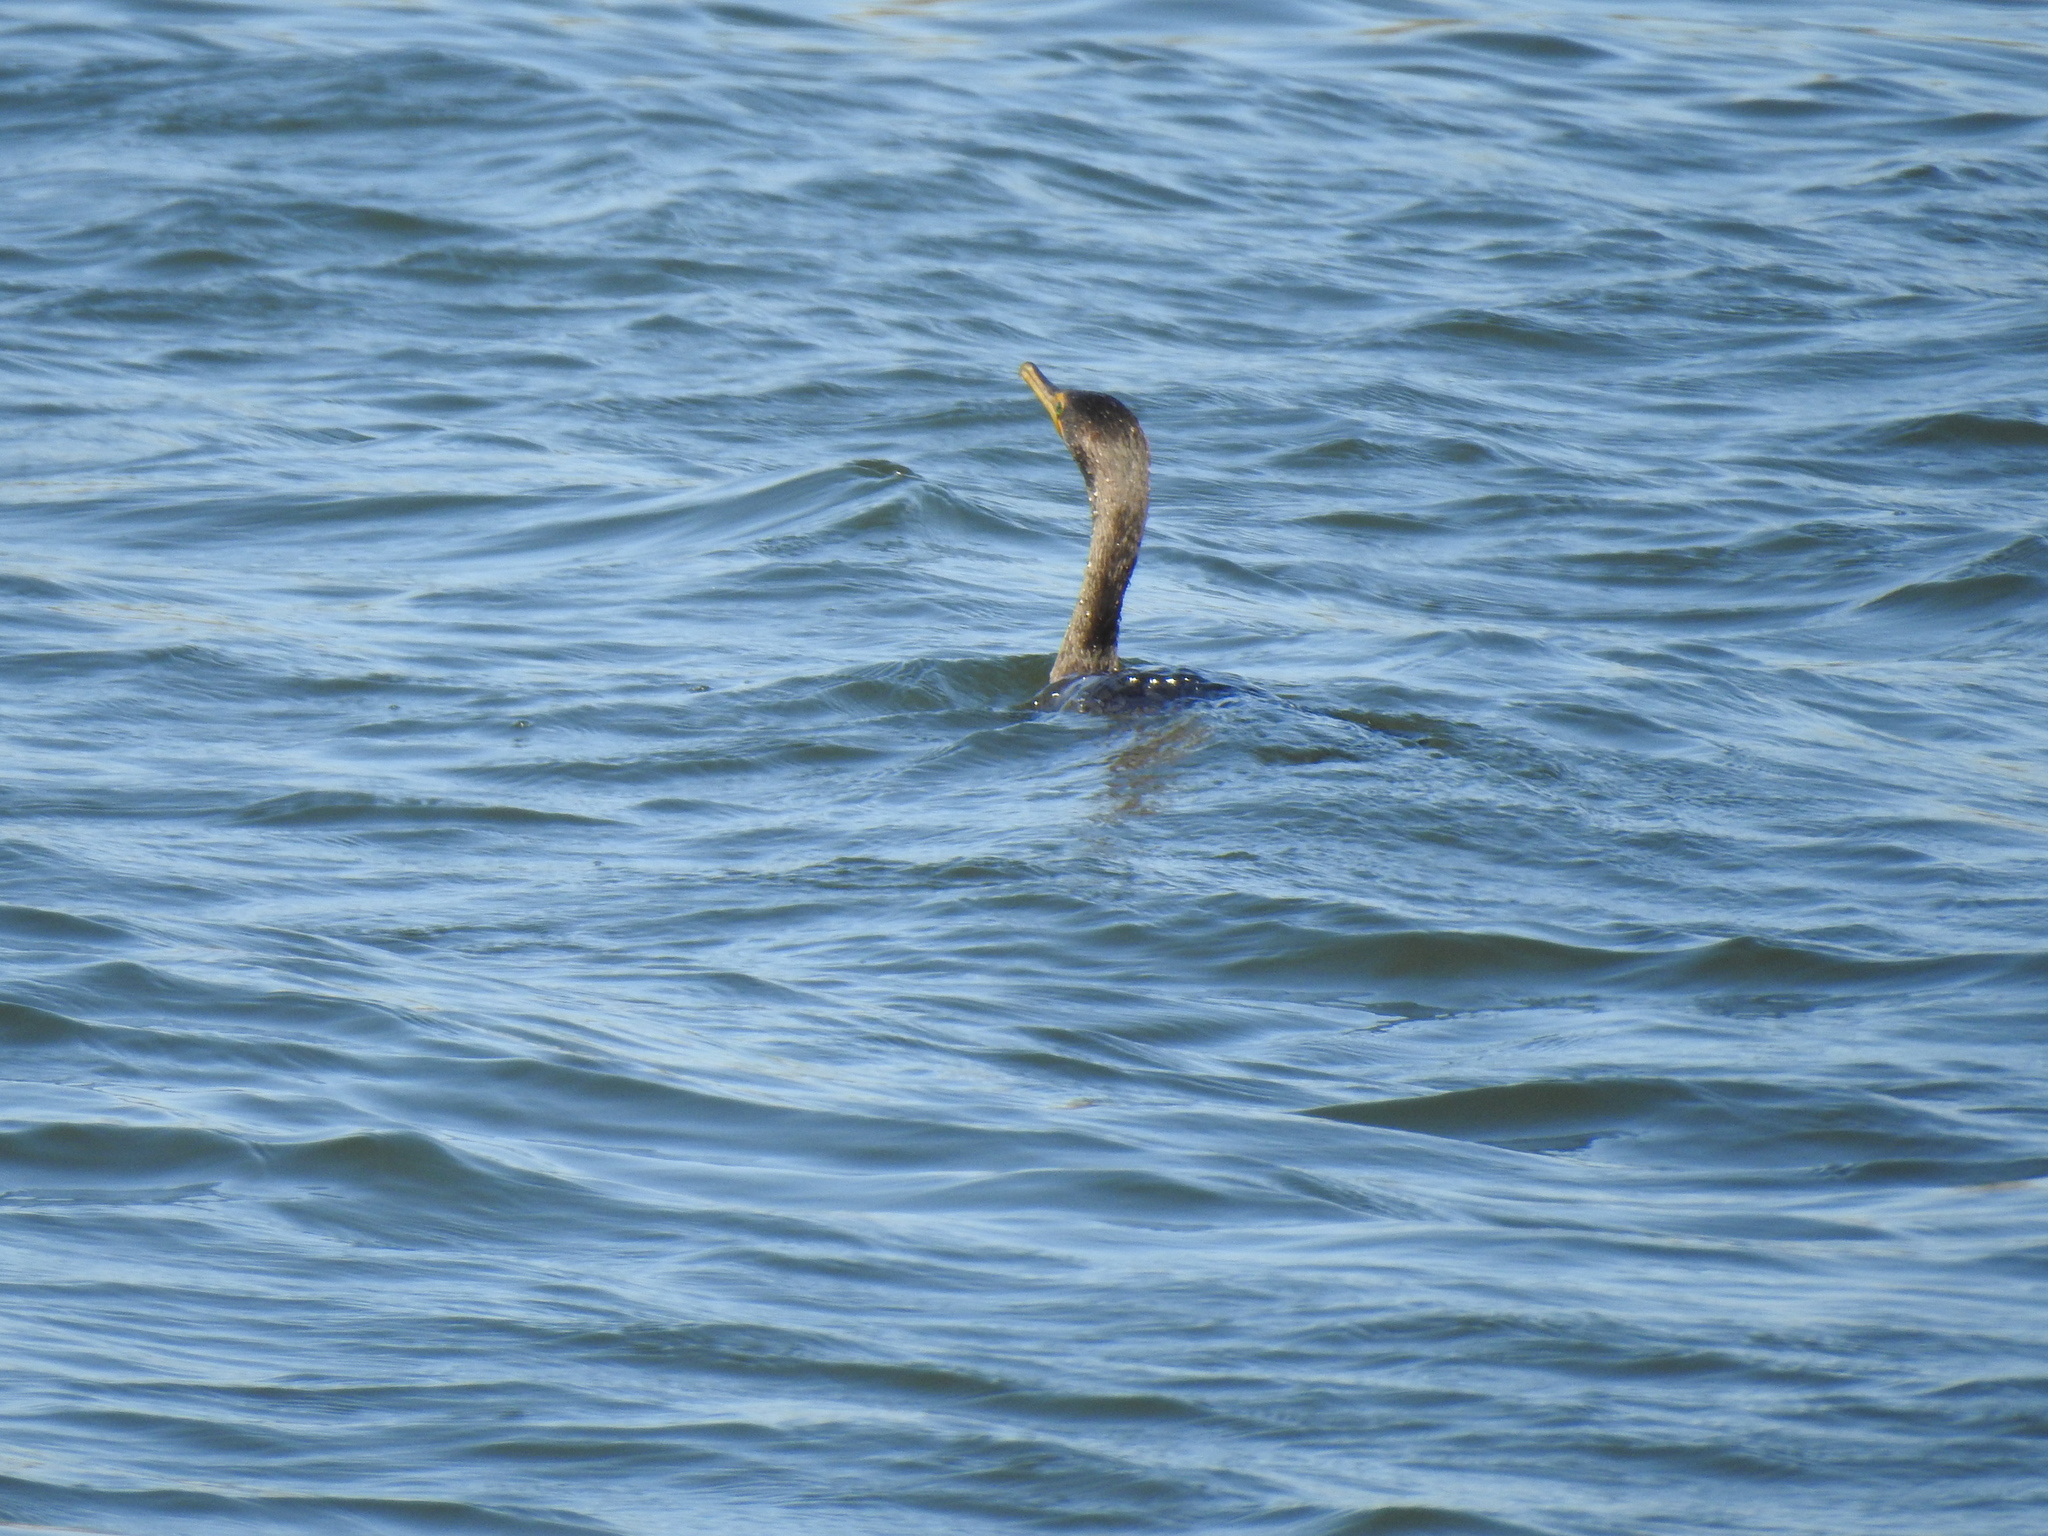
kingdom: Animalia
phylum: Chordata
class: Aves
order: Suliformes
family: Phalacrocoracidae
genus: Phalacrocorax
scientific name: Phalacrocorax auritus
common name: Double-crested cormorant
